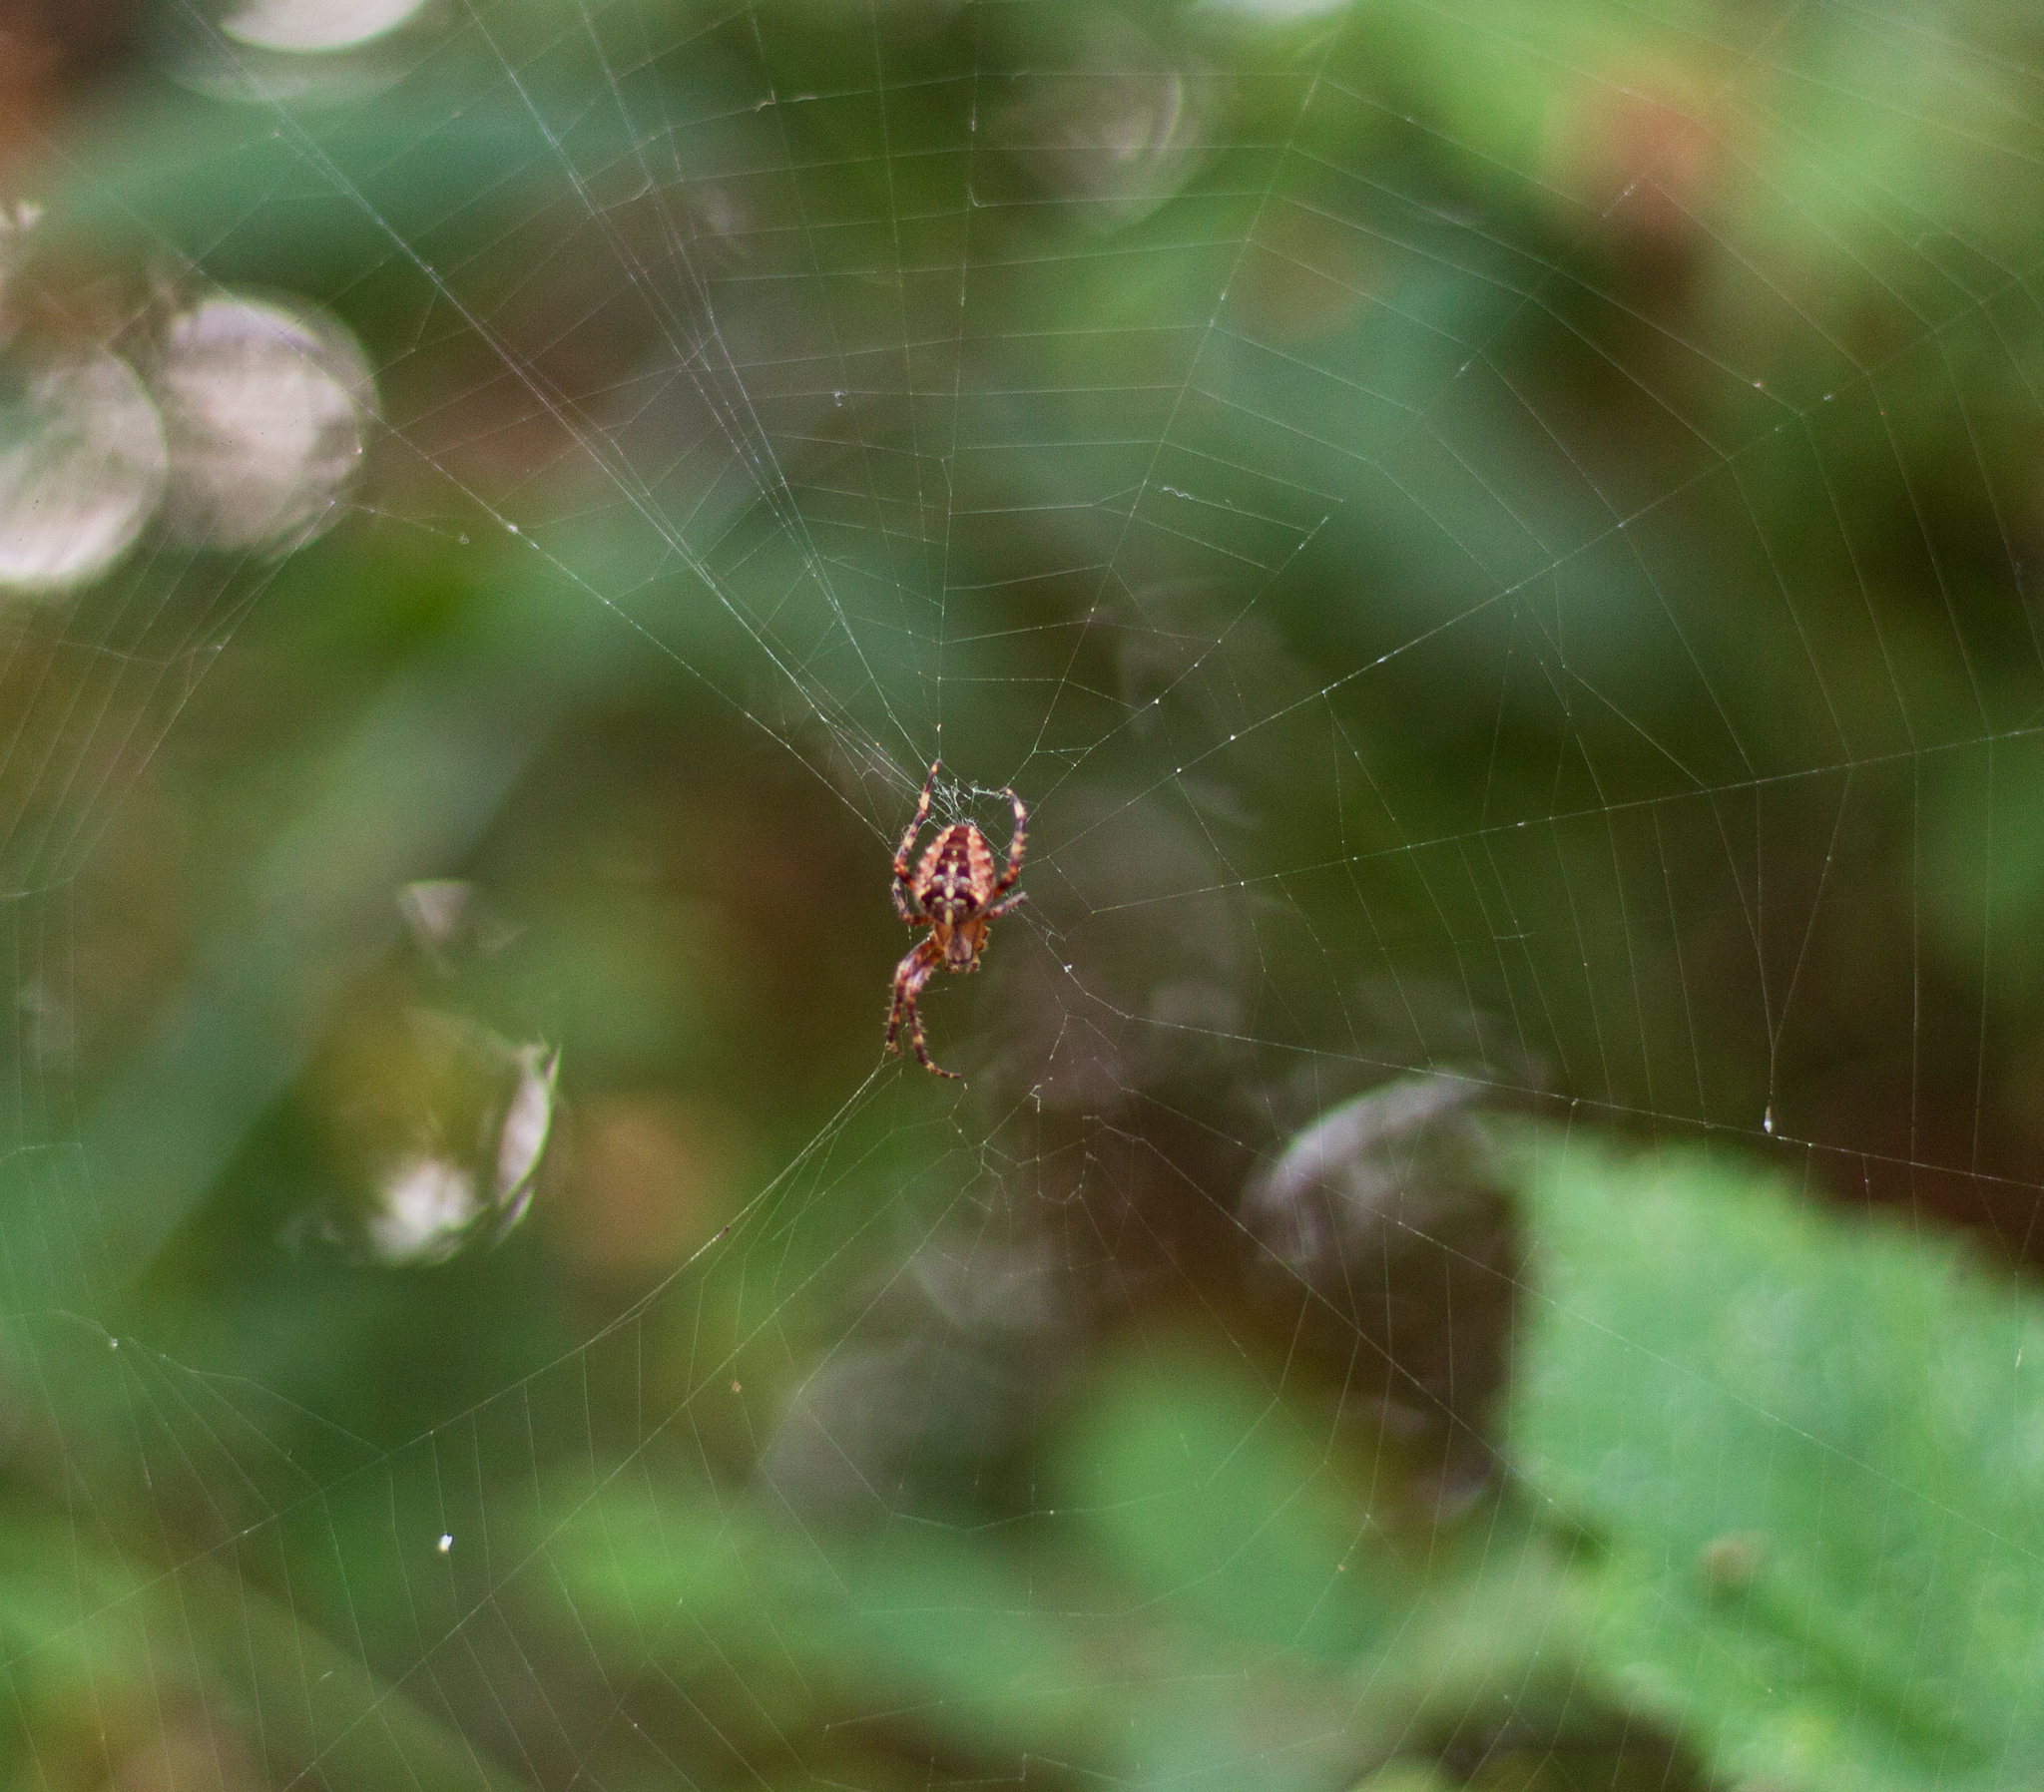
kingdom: Animalia
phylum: Arthropoda
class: Arachnida
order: Araneae
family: Araneidae
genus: Araneus
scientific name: Araneus diadematus
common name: Cross orbweaver
